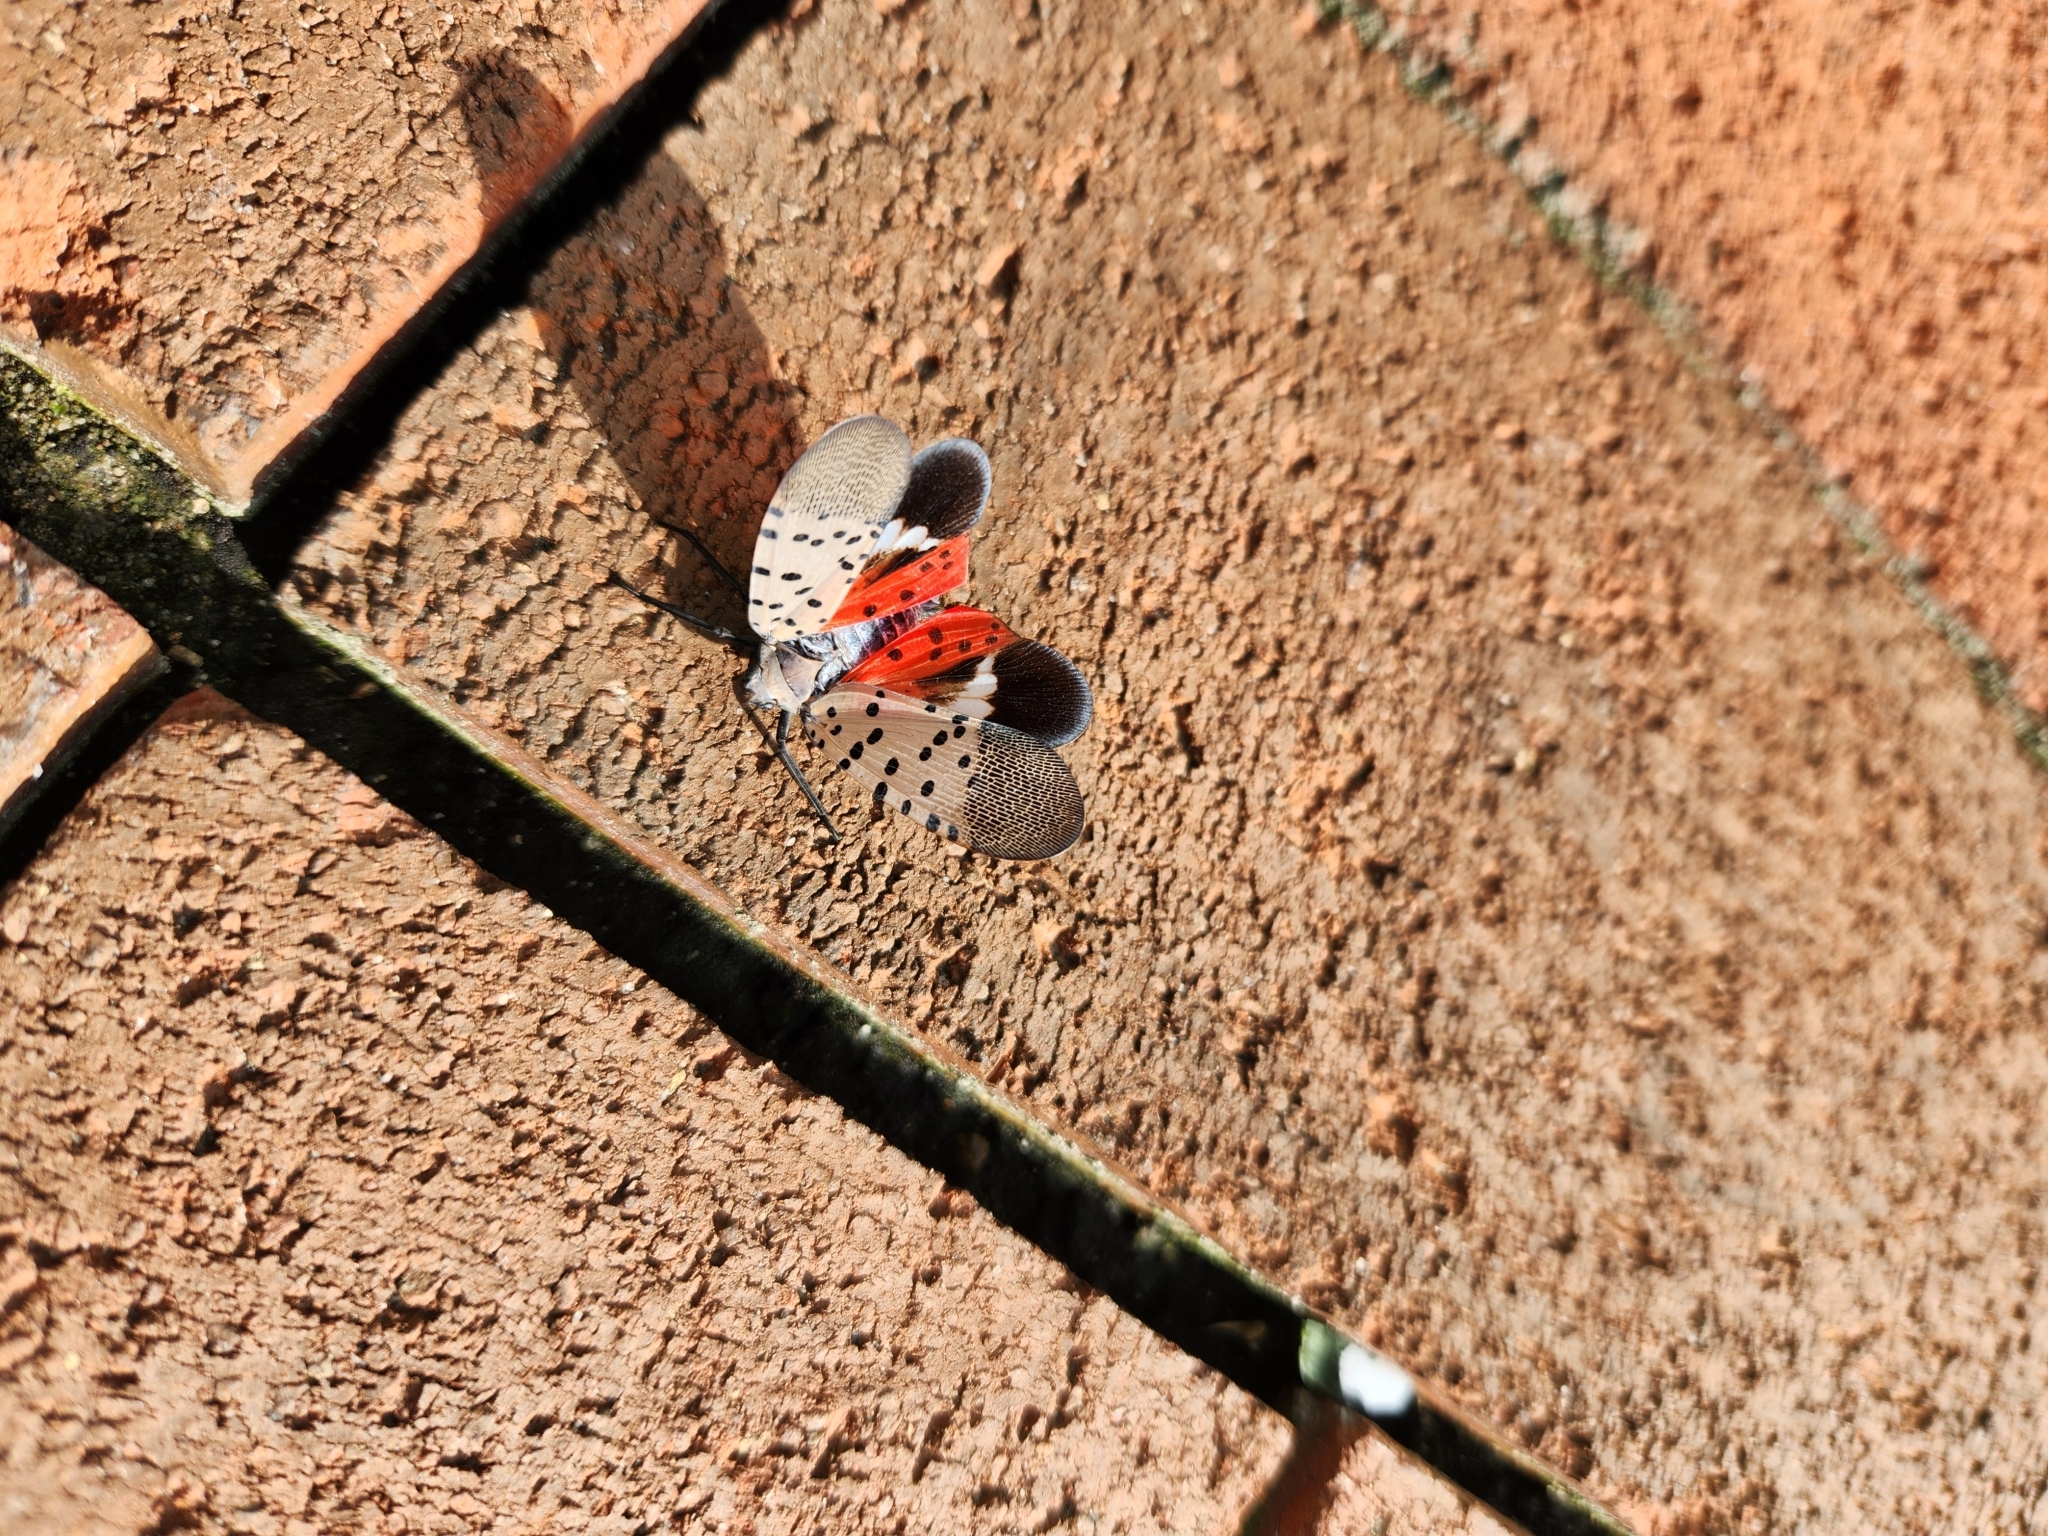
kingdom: Animalia
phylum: Arthropoda
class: Insecta
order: Hemiptera
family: Fulgoridae
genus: Lycorma
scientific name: Lycorma delicatula
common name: Spotted lanternfly
